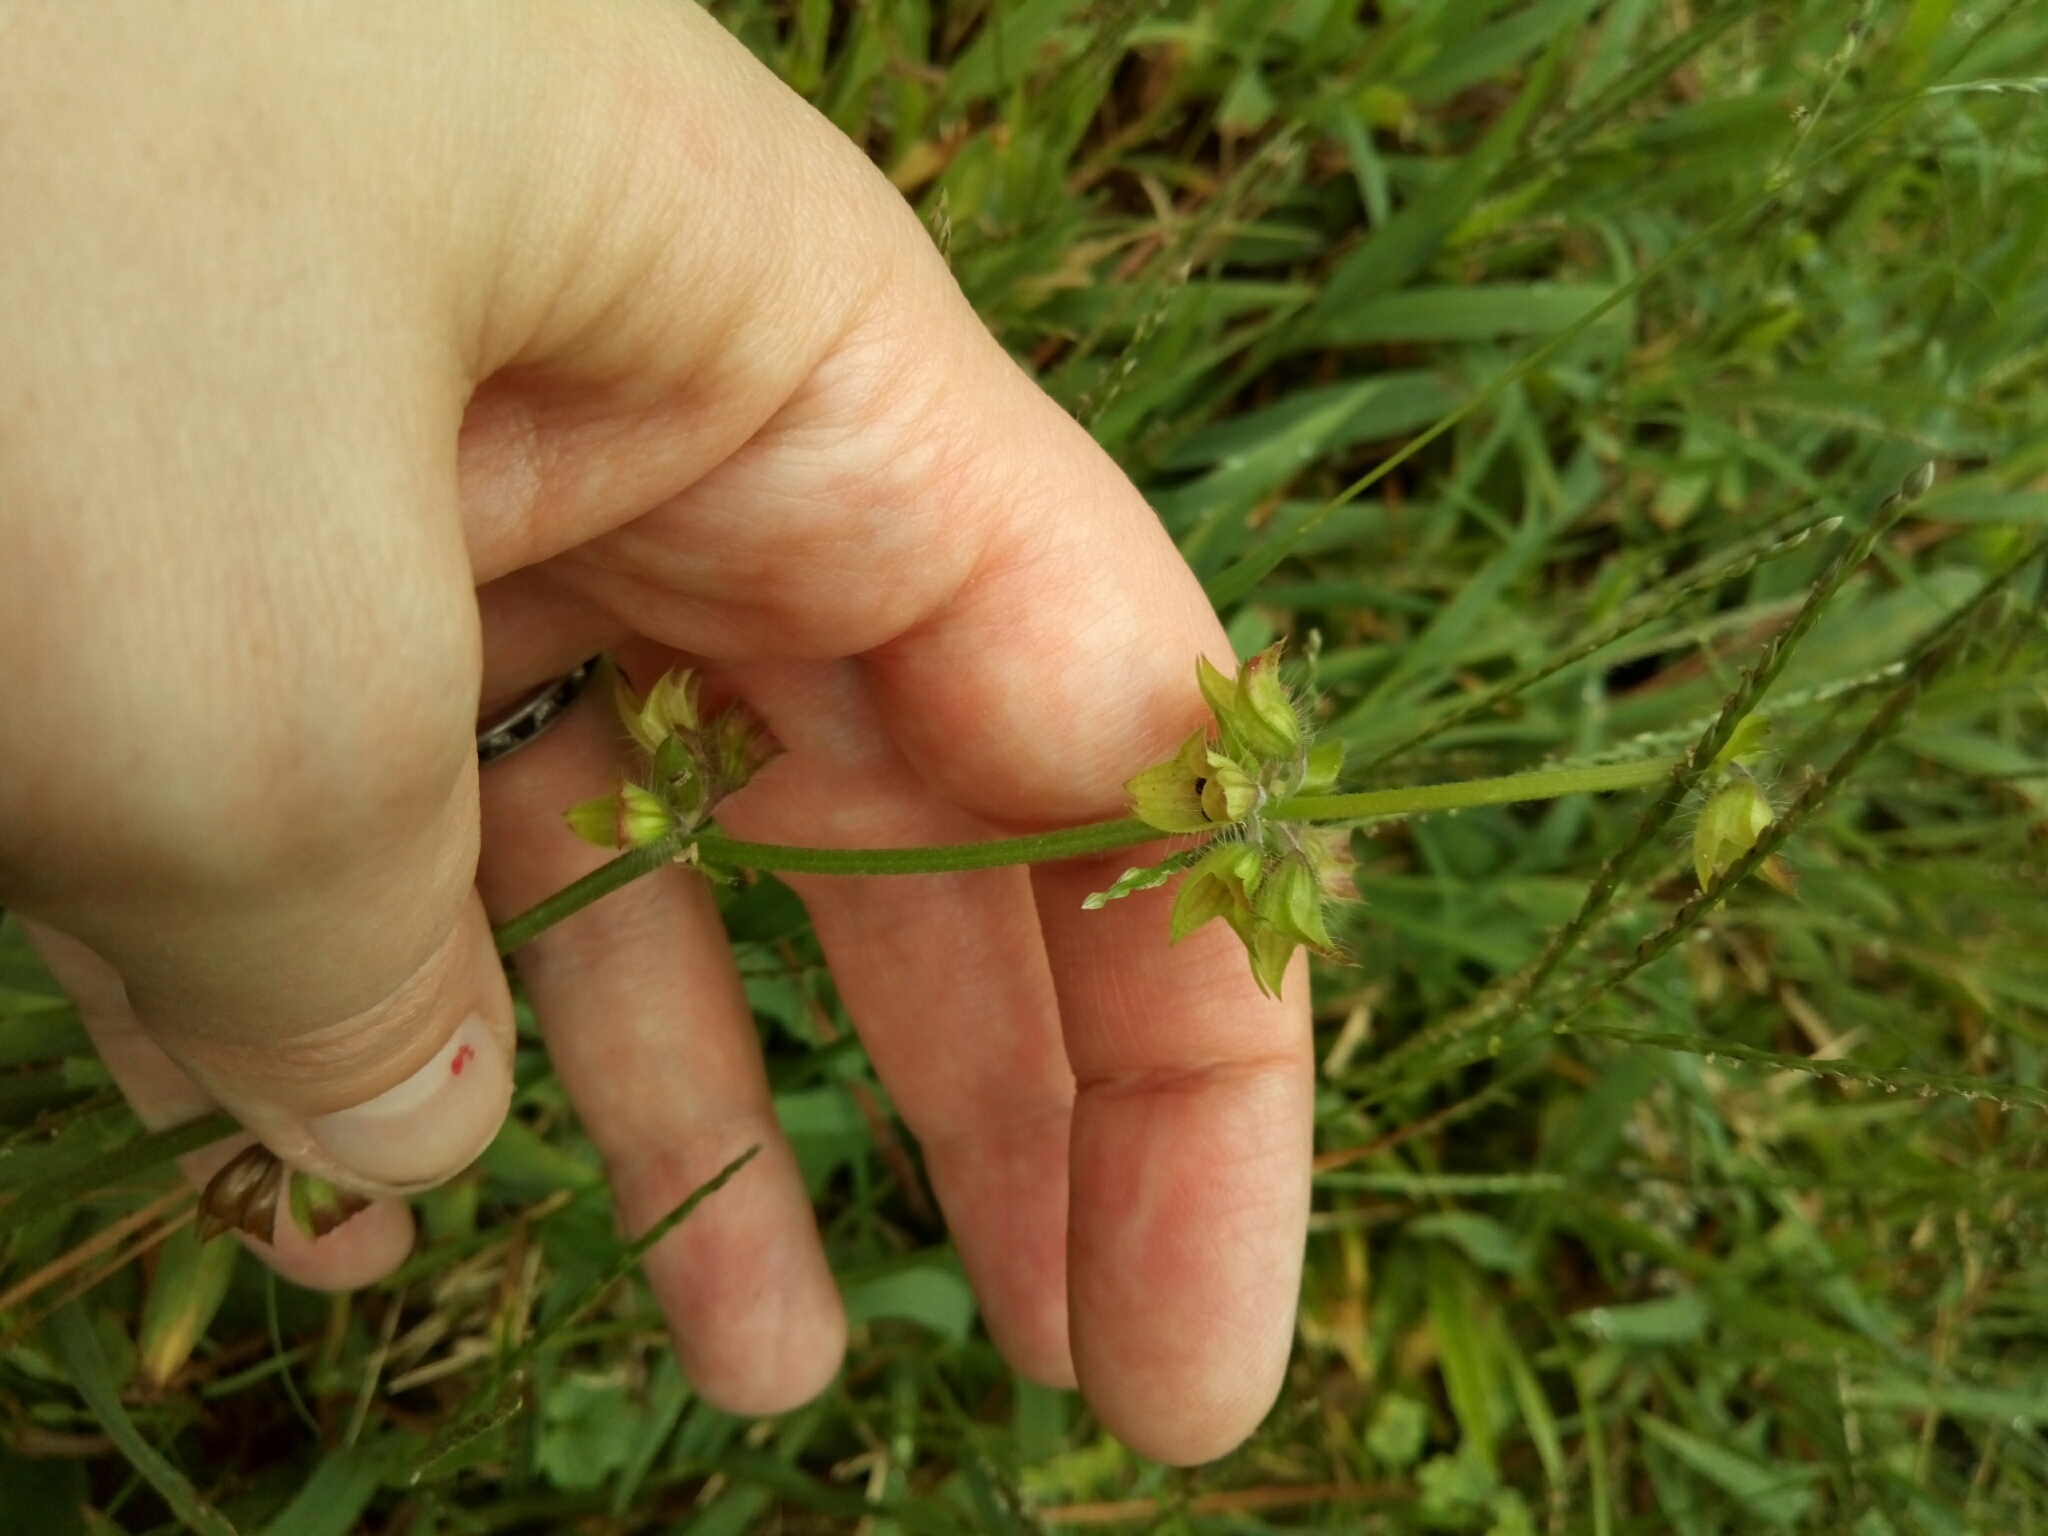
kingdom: Plantae
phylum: Tracheophyta
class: Magnoliopsida
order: Lamiales
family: Lamiaceae
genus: Salvia
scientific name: Salvia lyrata
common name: Cancerweed
